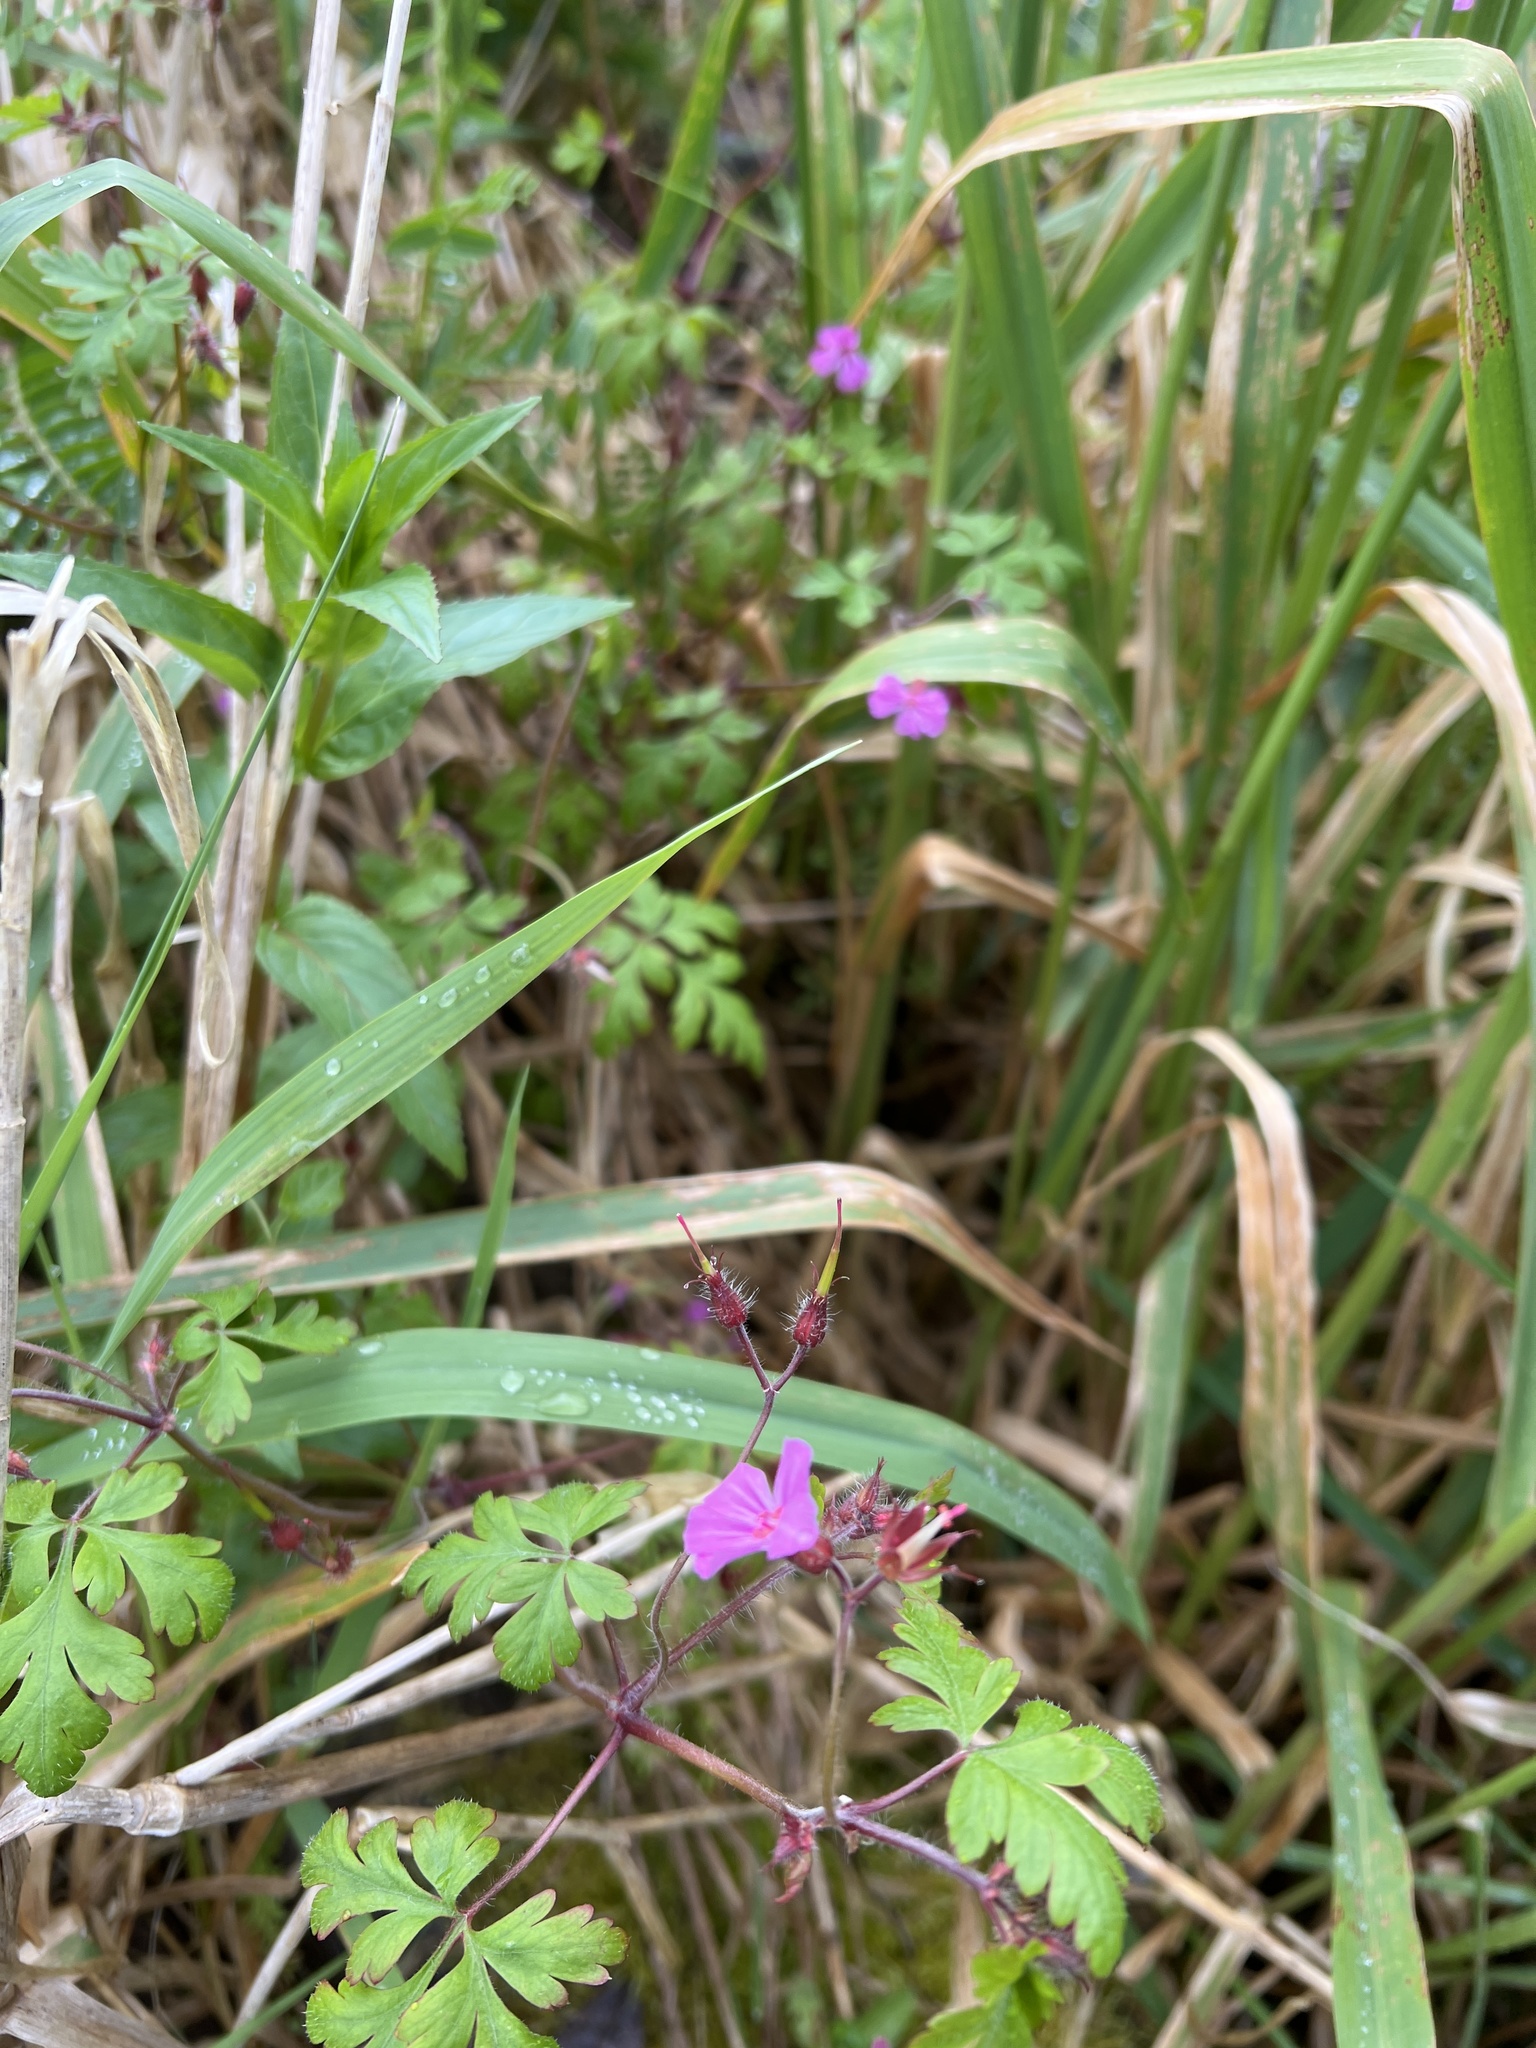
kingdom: Plantae
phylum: Tracheophyta
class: Magnoliopsida
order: Geraniales
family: Geraniaceae
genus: Geranium
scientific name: Geranium robertianum
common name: Herb-robert
